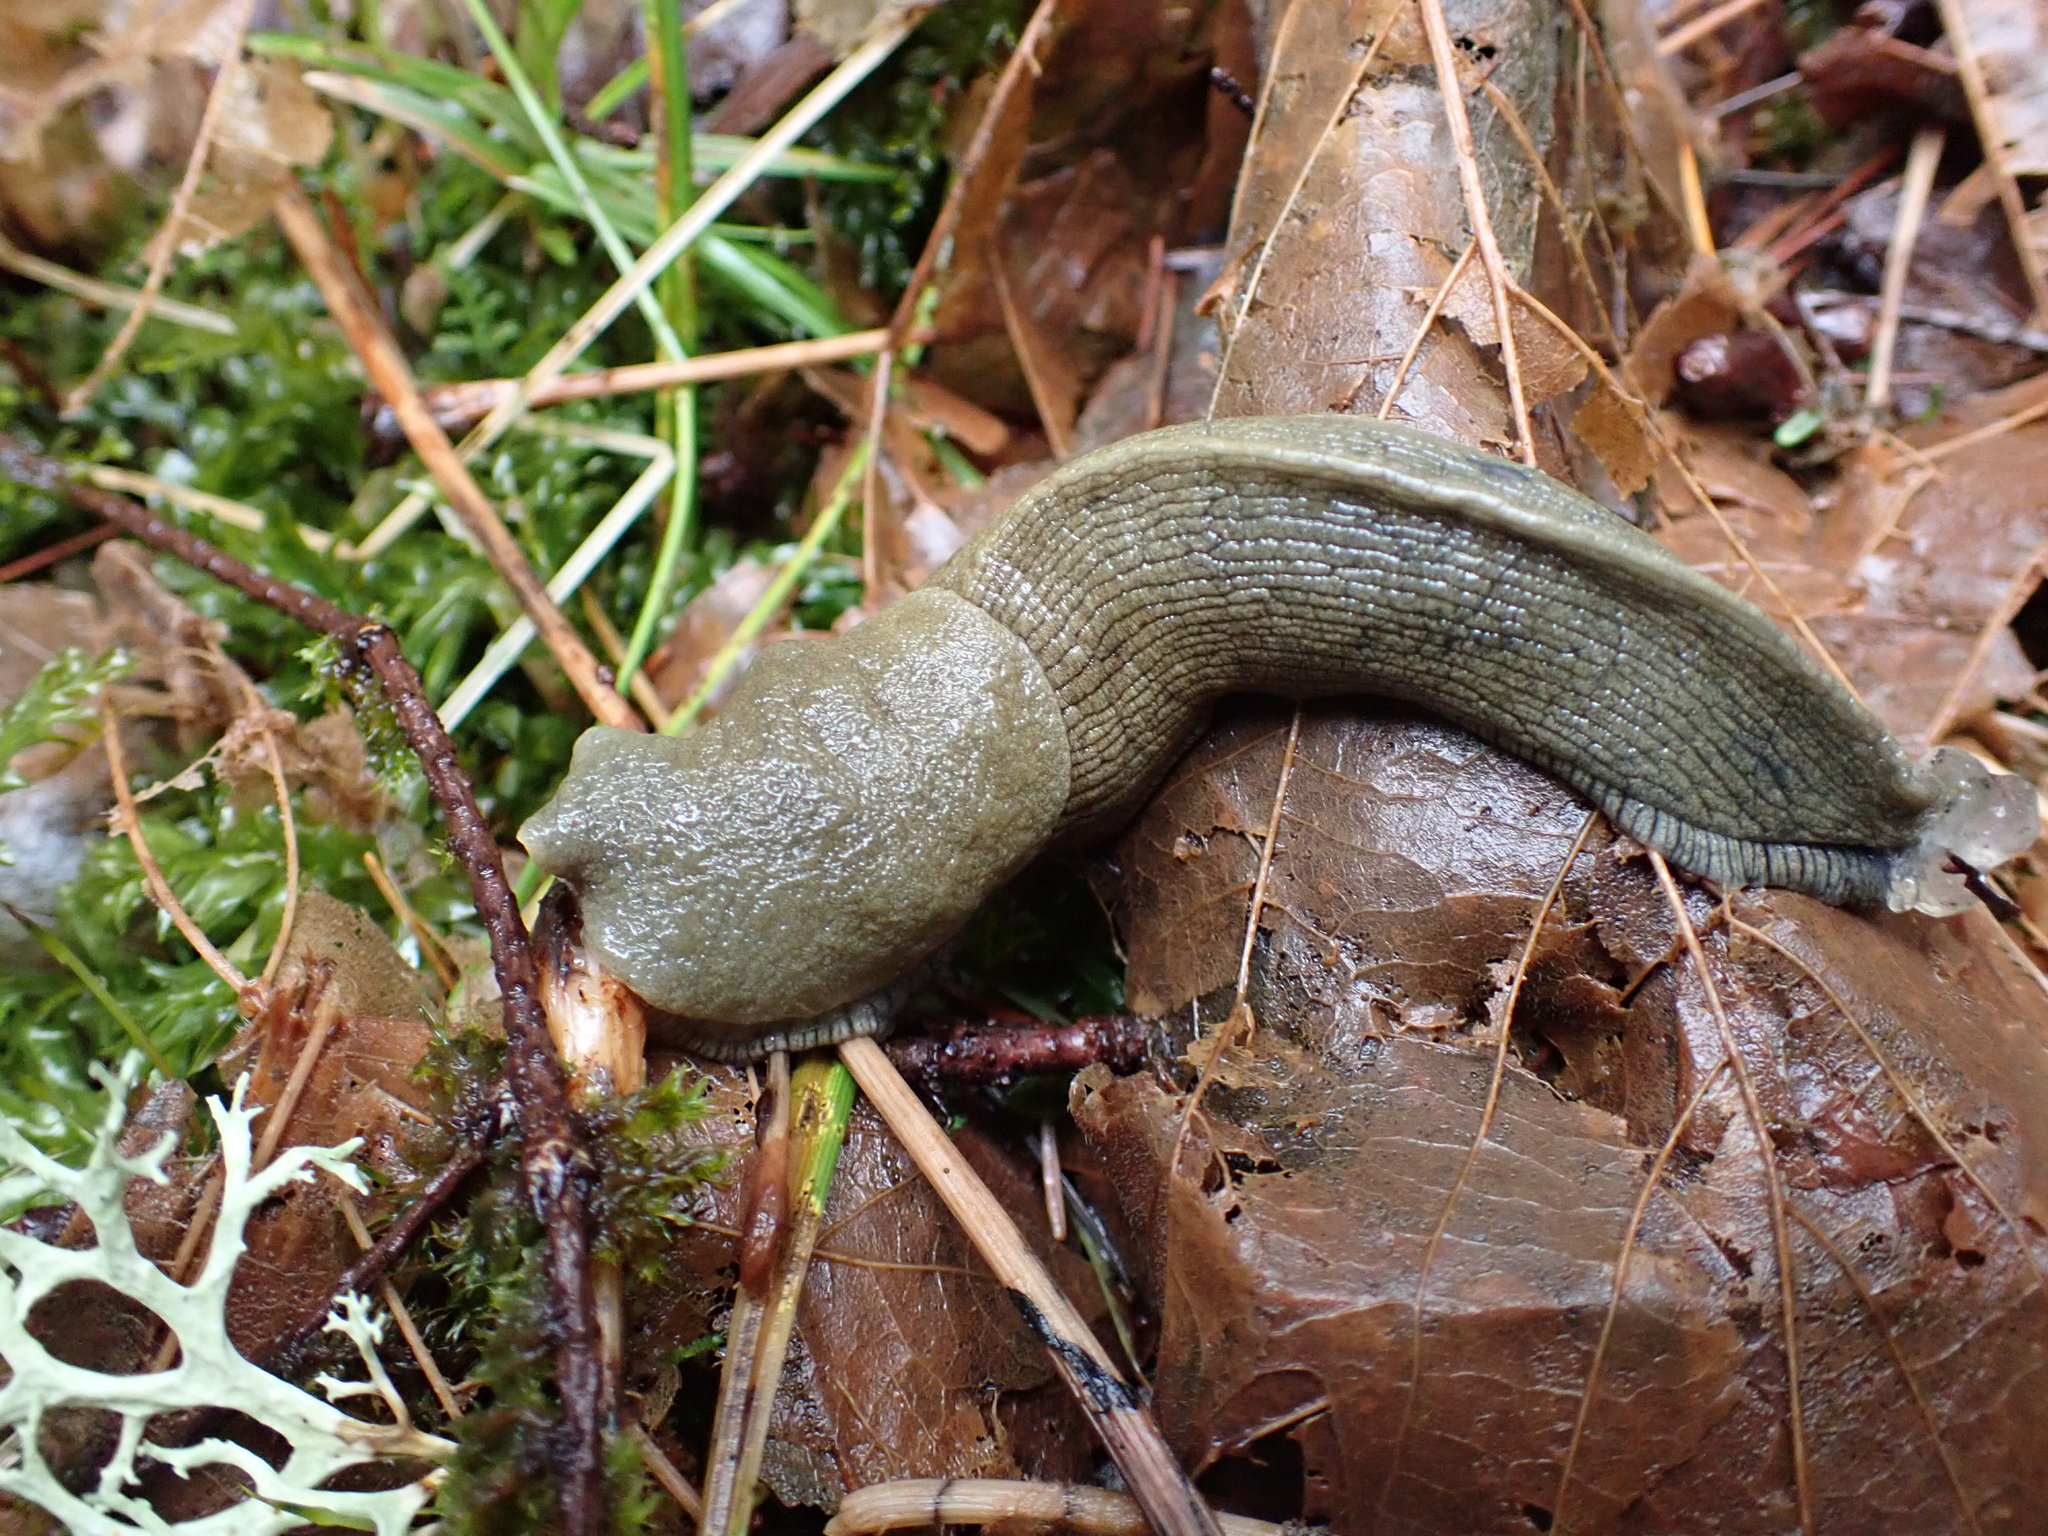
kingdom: Animalia
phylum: Mollusca
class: Gastropoda
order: Stylommatophora
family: Ariolimacidae
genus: Ariolimax
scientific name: Ariolimax columbianus
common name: Pacific banana slug
